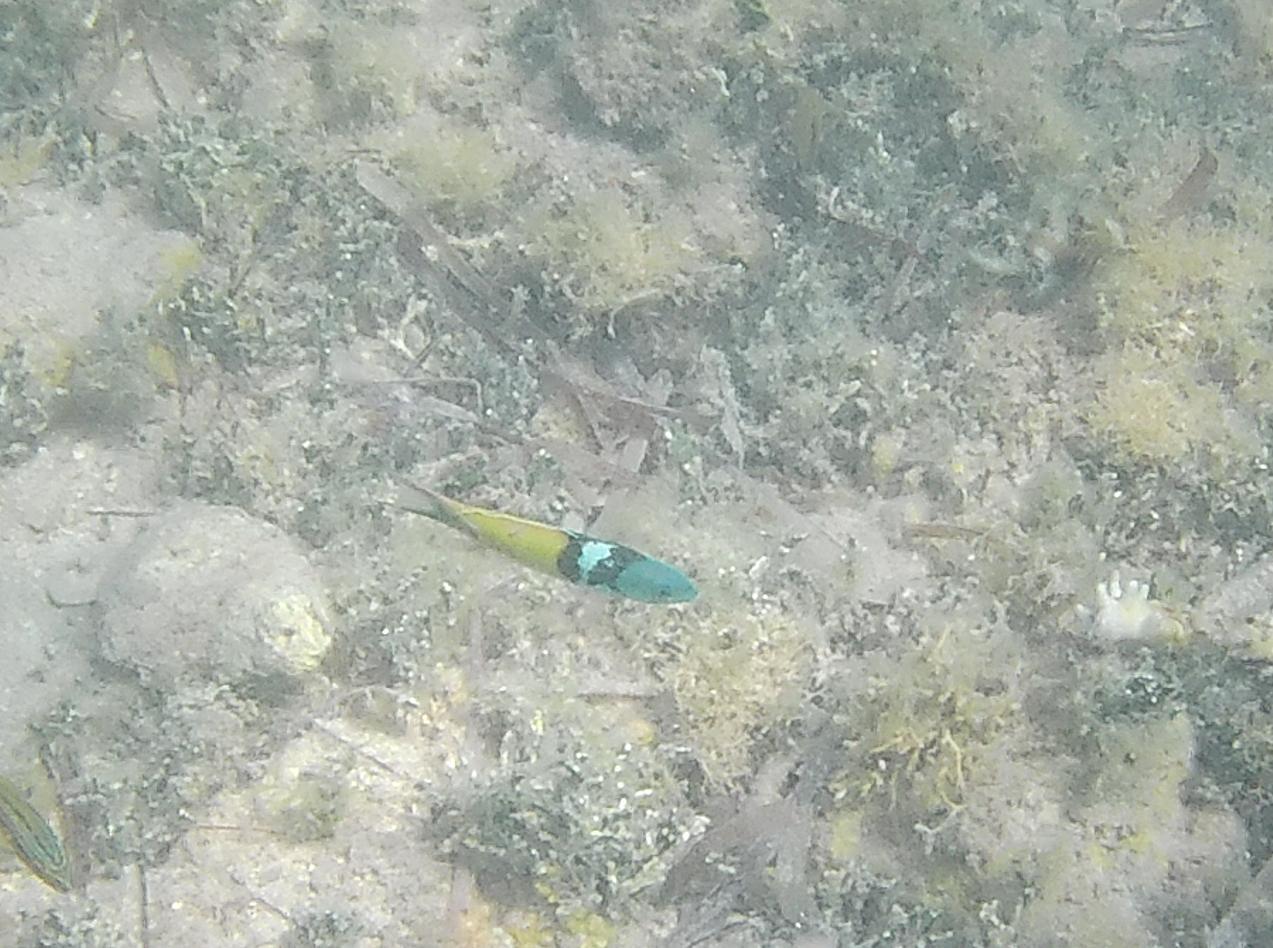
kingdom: Animalia
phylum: Chordata
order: Perciformes
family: Labridae
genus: Thalassoma
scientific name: Thalassoma bifasciatum
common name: Bluehead wrasse
